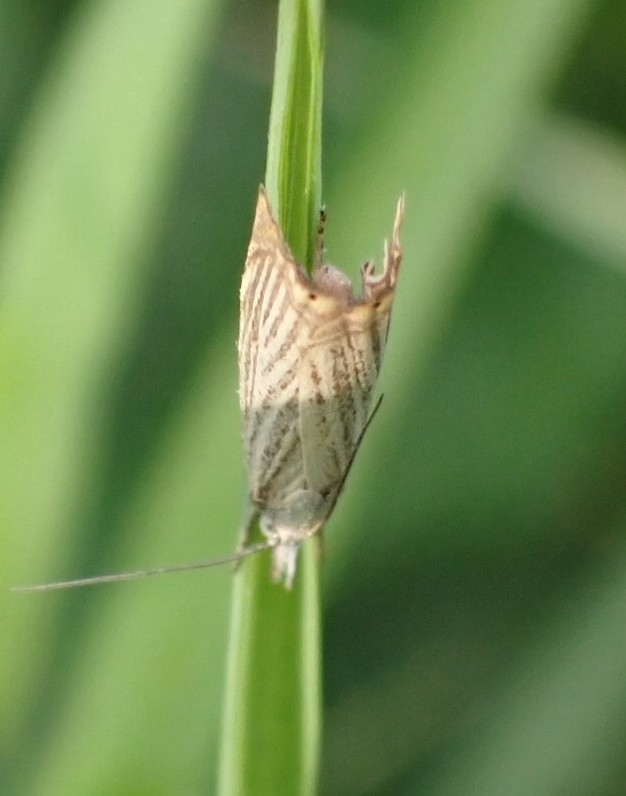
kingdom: Animalia
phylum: Arthropoda
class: Insecta
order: Lepidoptera
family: Crambidae
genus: Chrysoteuchia
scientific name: Chrysoteuchia culmella
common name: Garden grass-veneer
